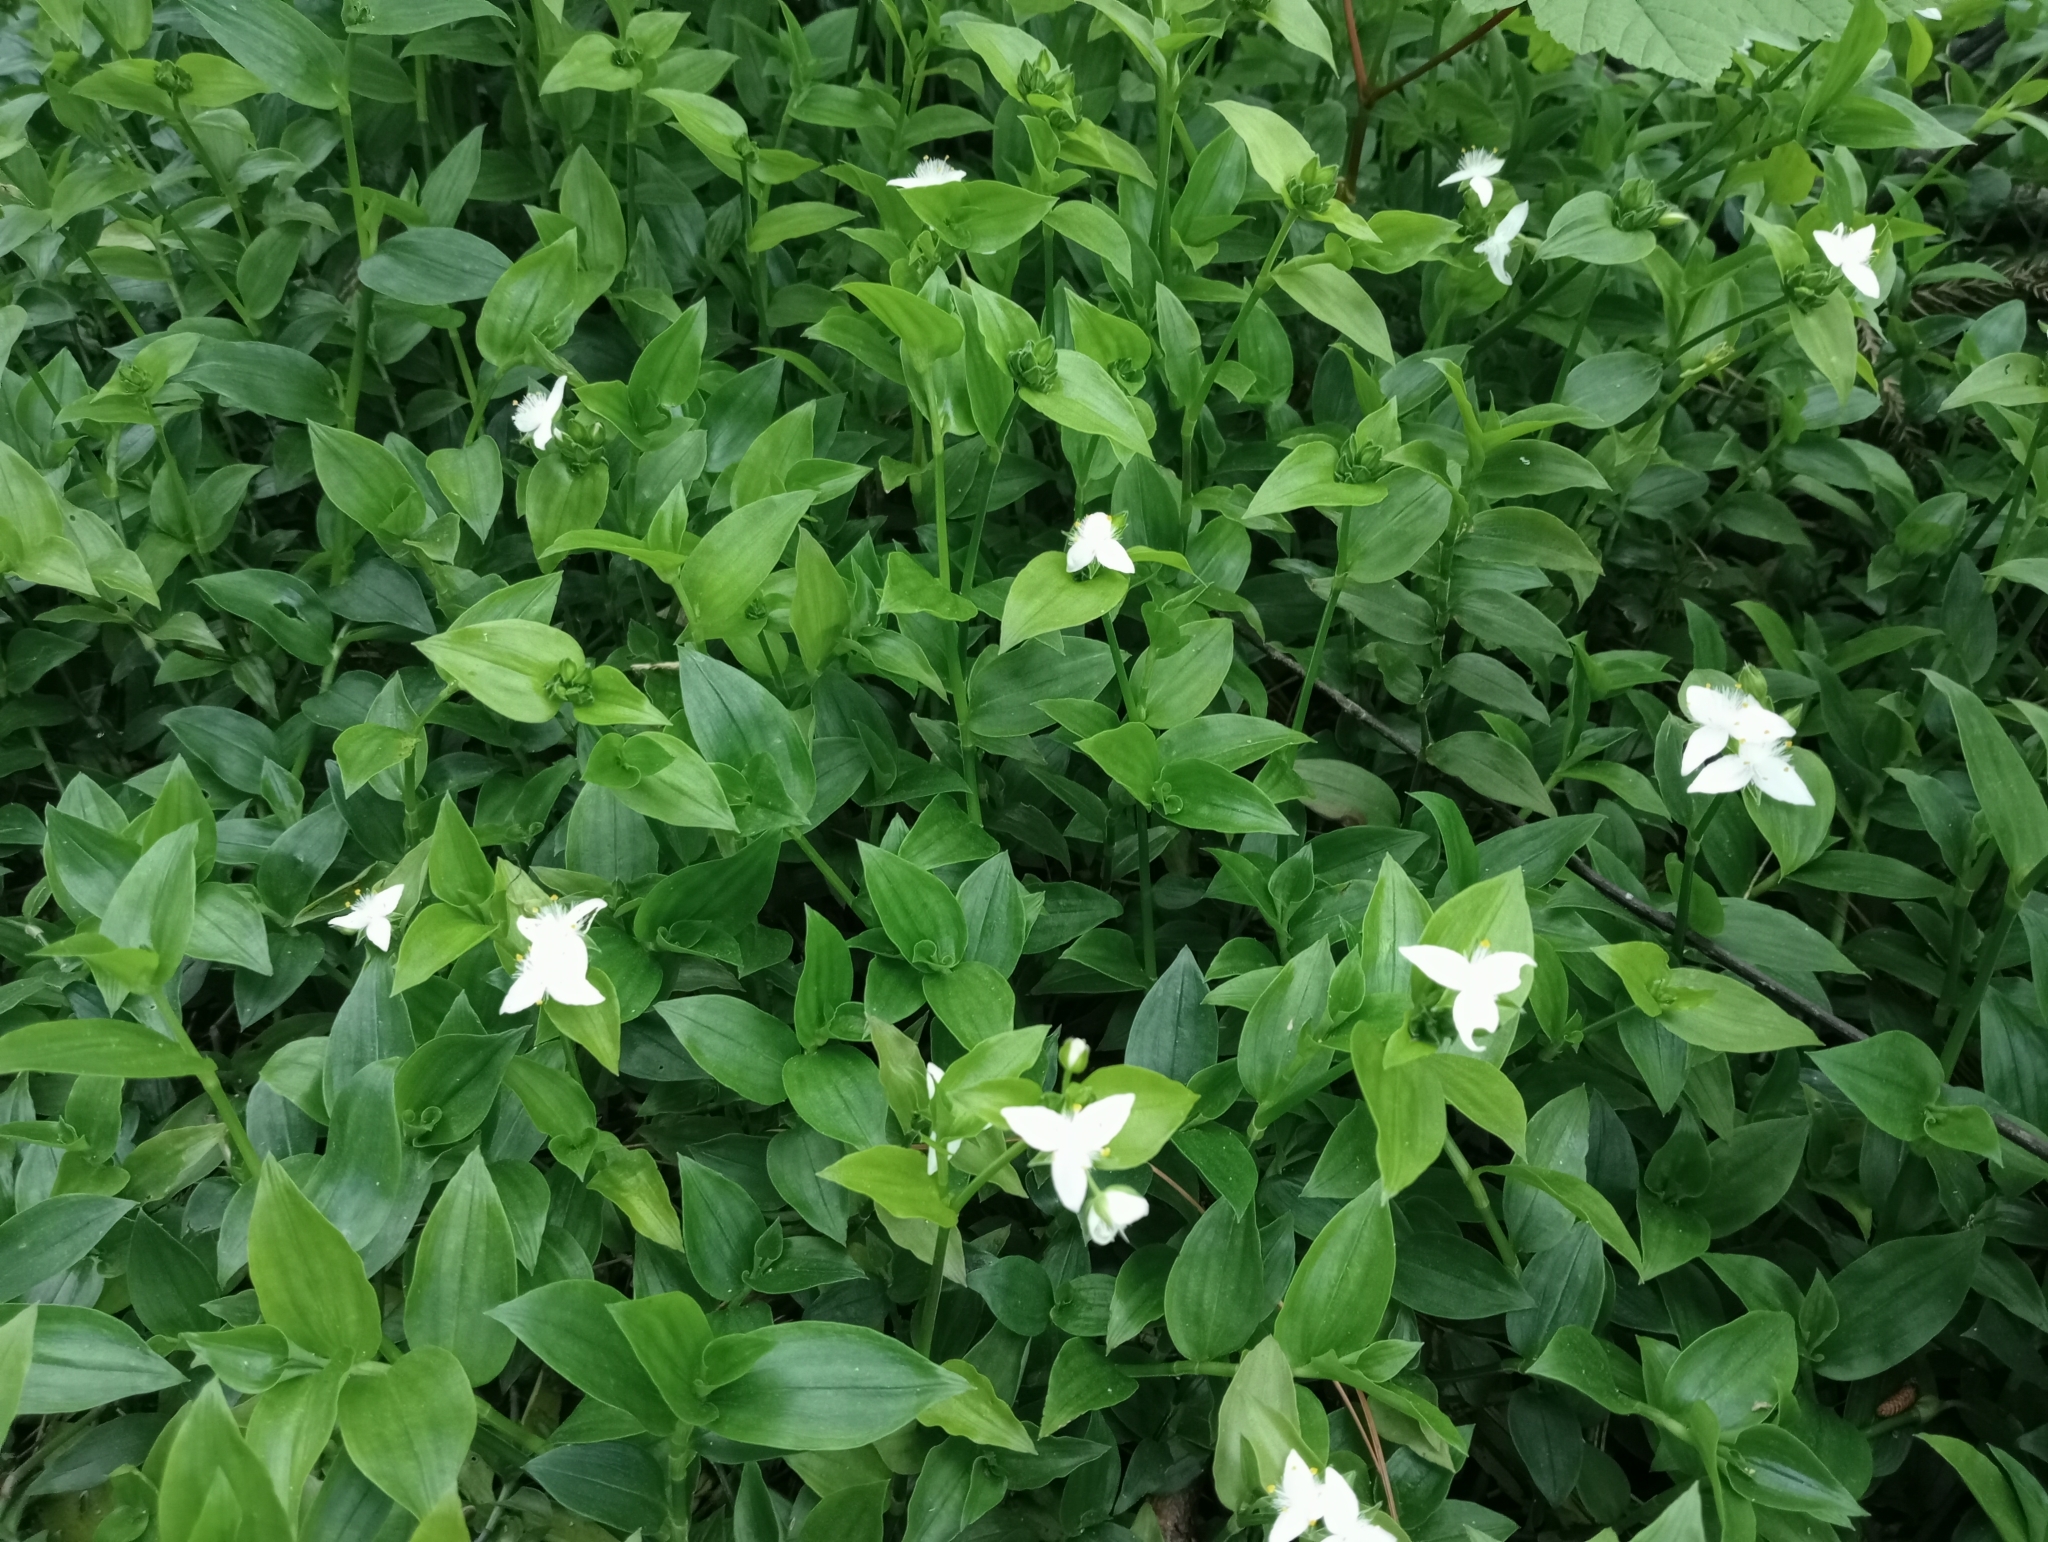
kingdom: Plantae
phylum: Tracheophyta
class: Liliopsida
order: Commelinales
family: Commelinaceae
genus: Tradescantia
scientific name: Tradescantia fluminensis
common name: Wandering-jew
